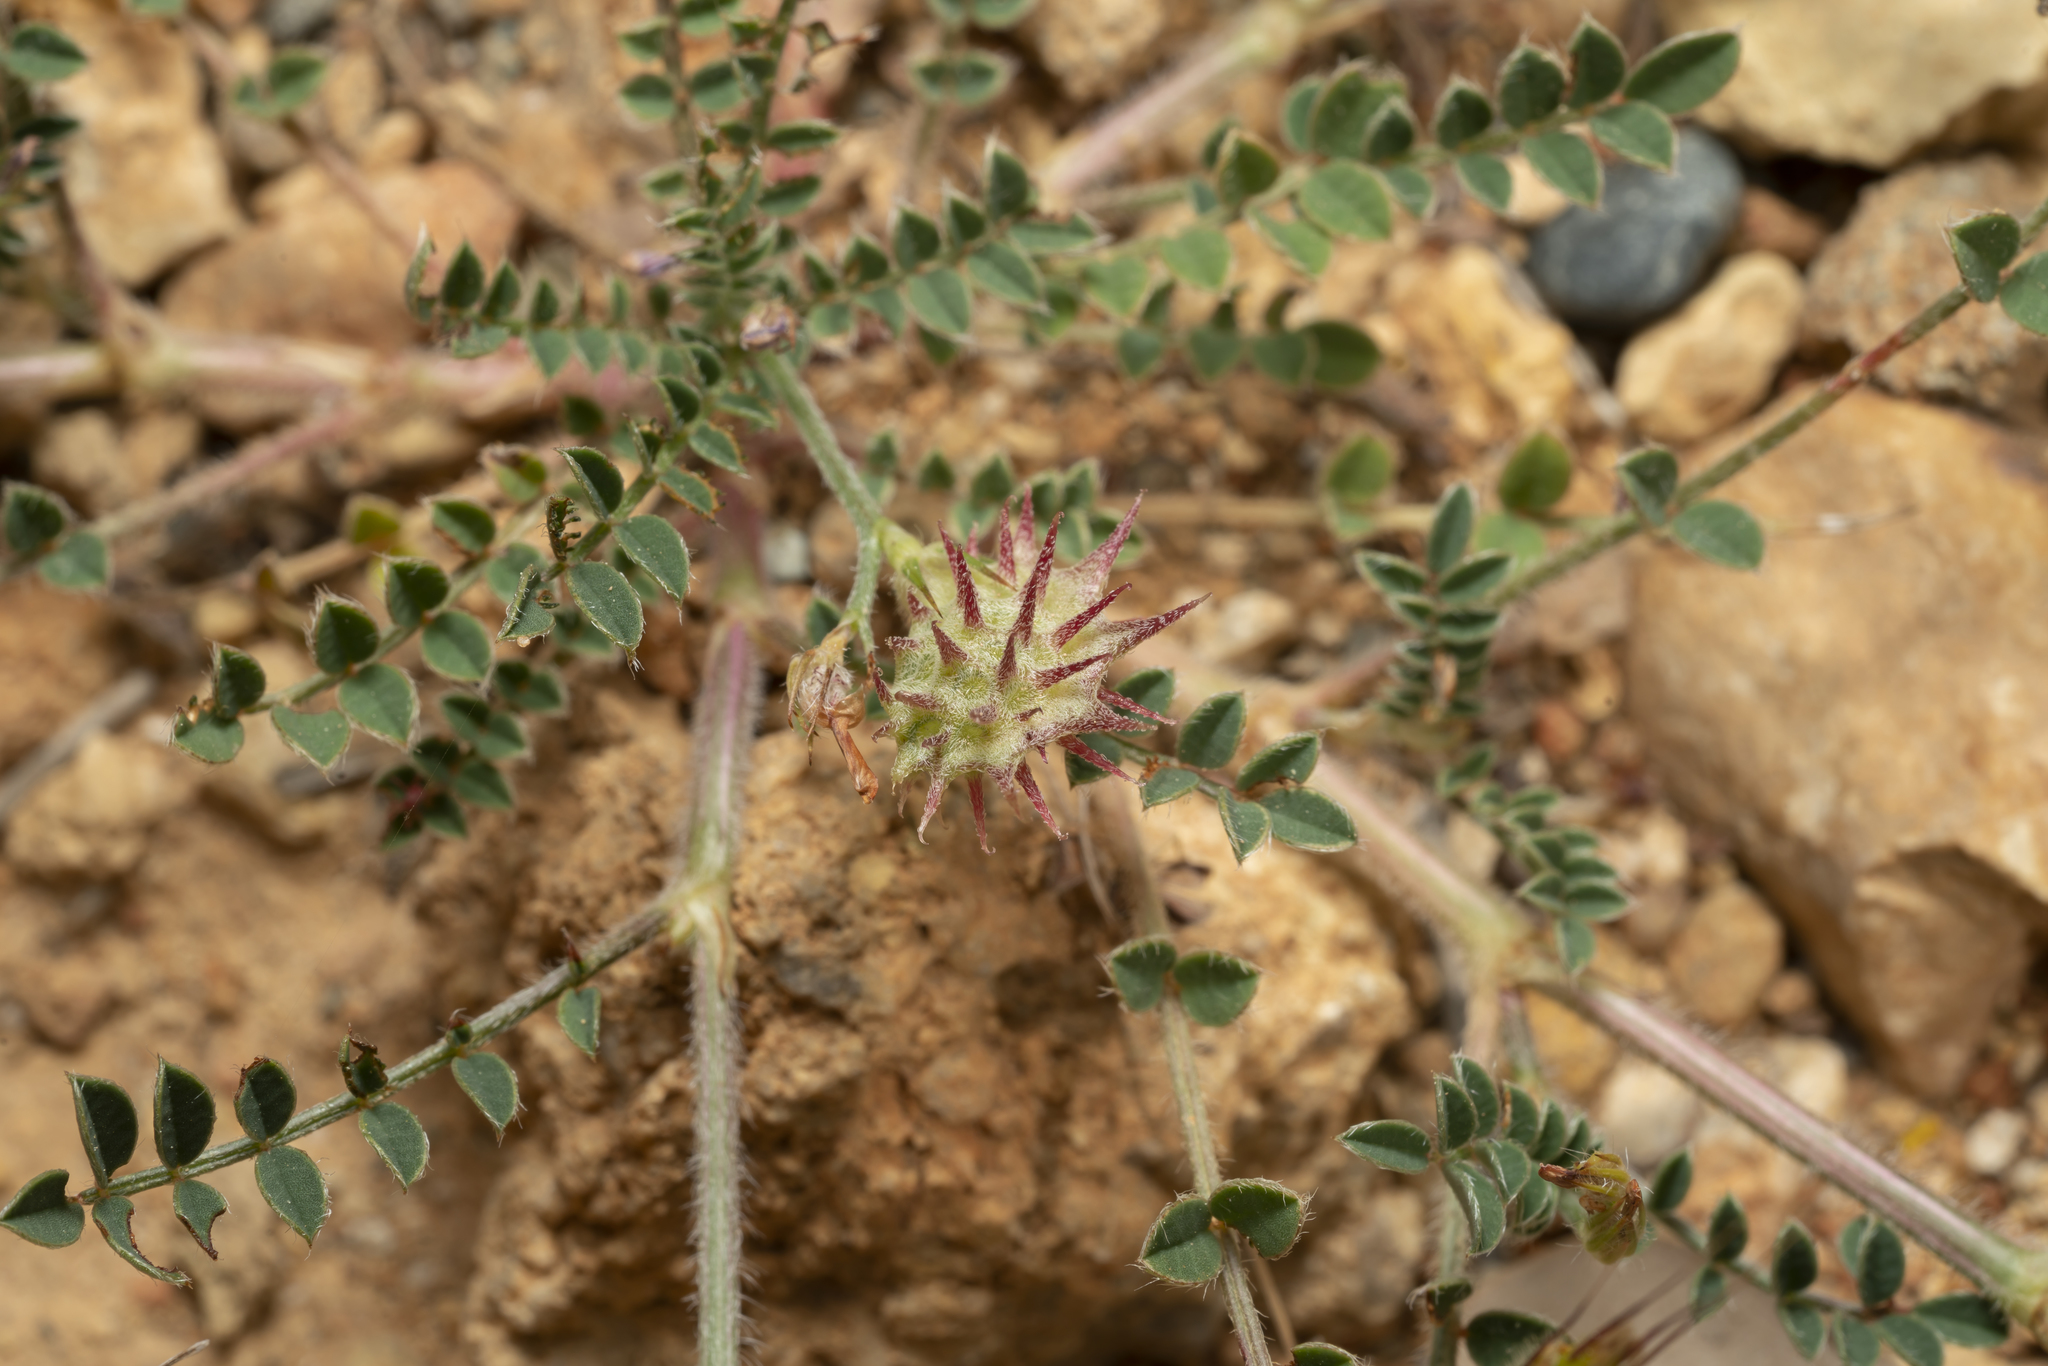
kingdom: Plantae
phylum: Tracheophyta
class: Magnoliopsida
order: Fabales
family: Fabaceae
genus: Onobrychis
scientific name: Onobrychis caput-galli
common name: Cockscomb sainfoin
